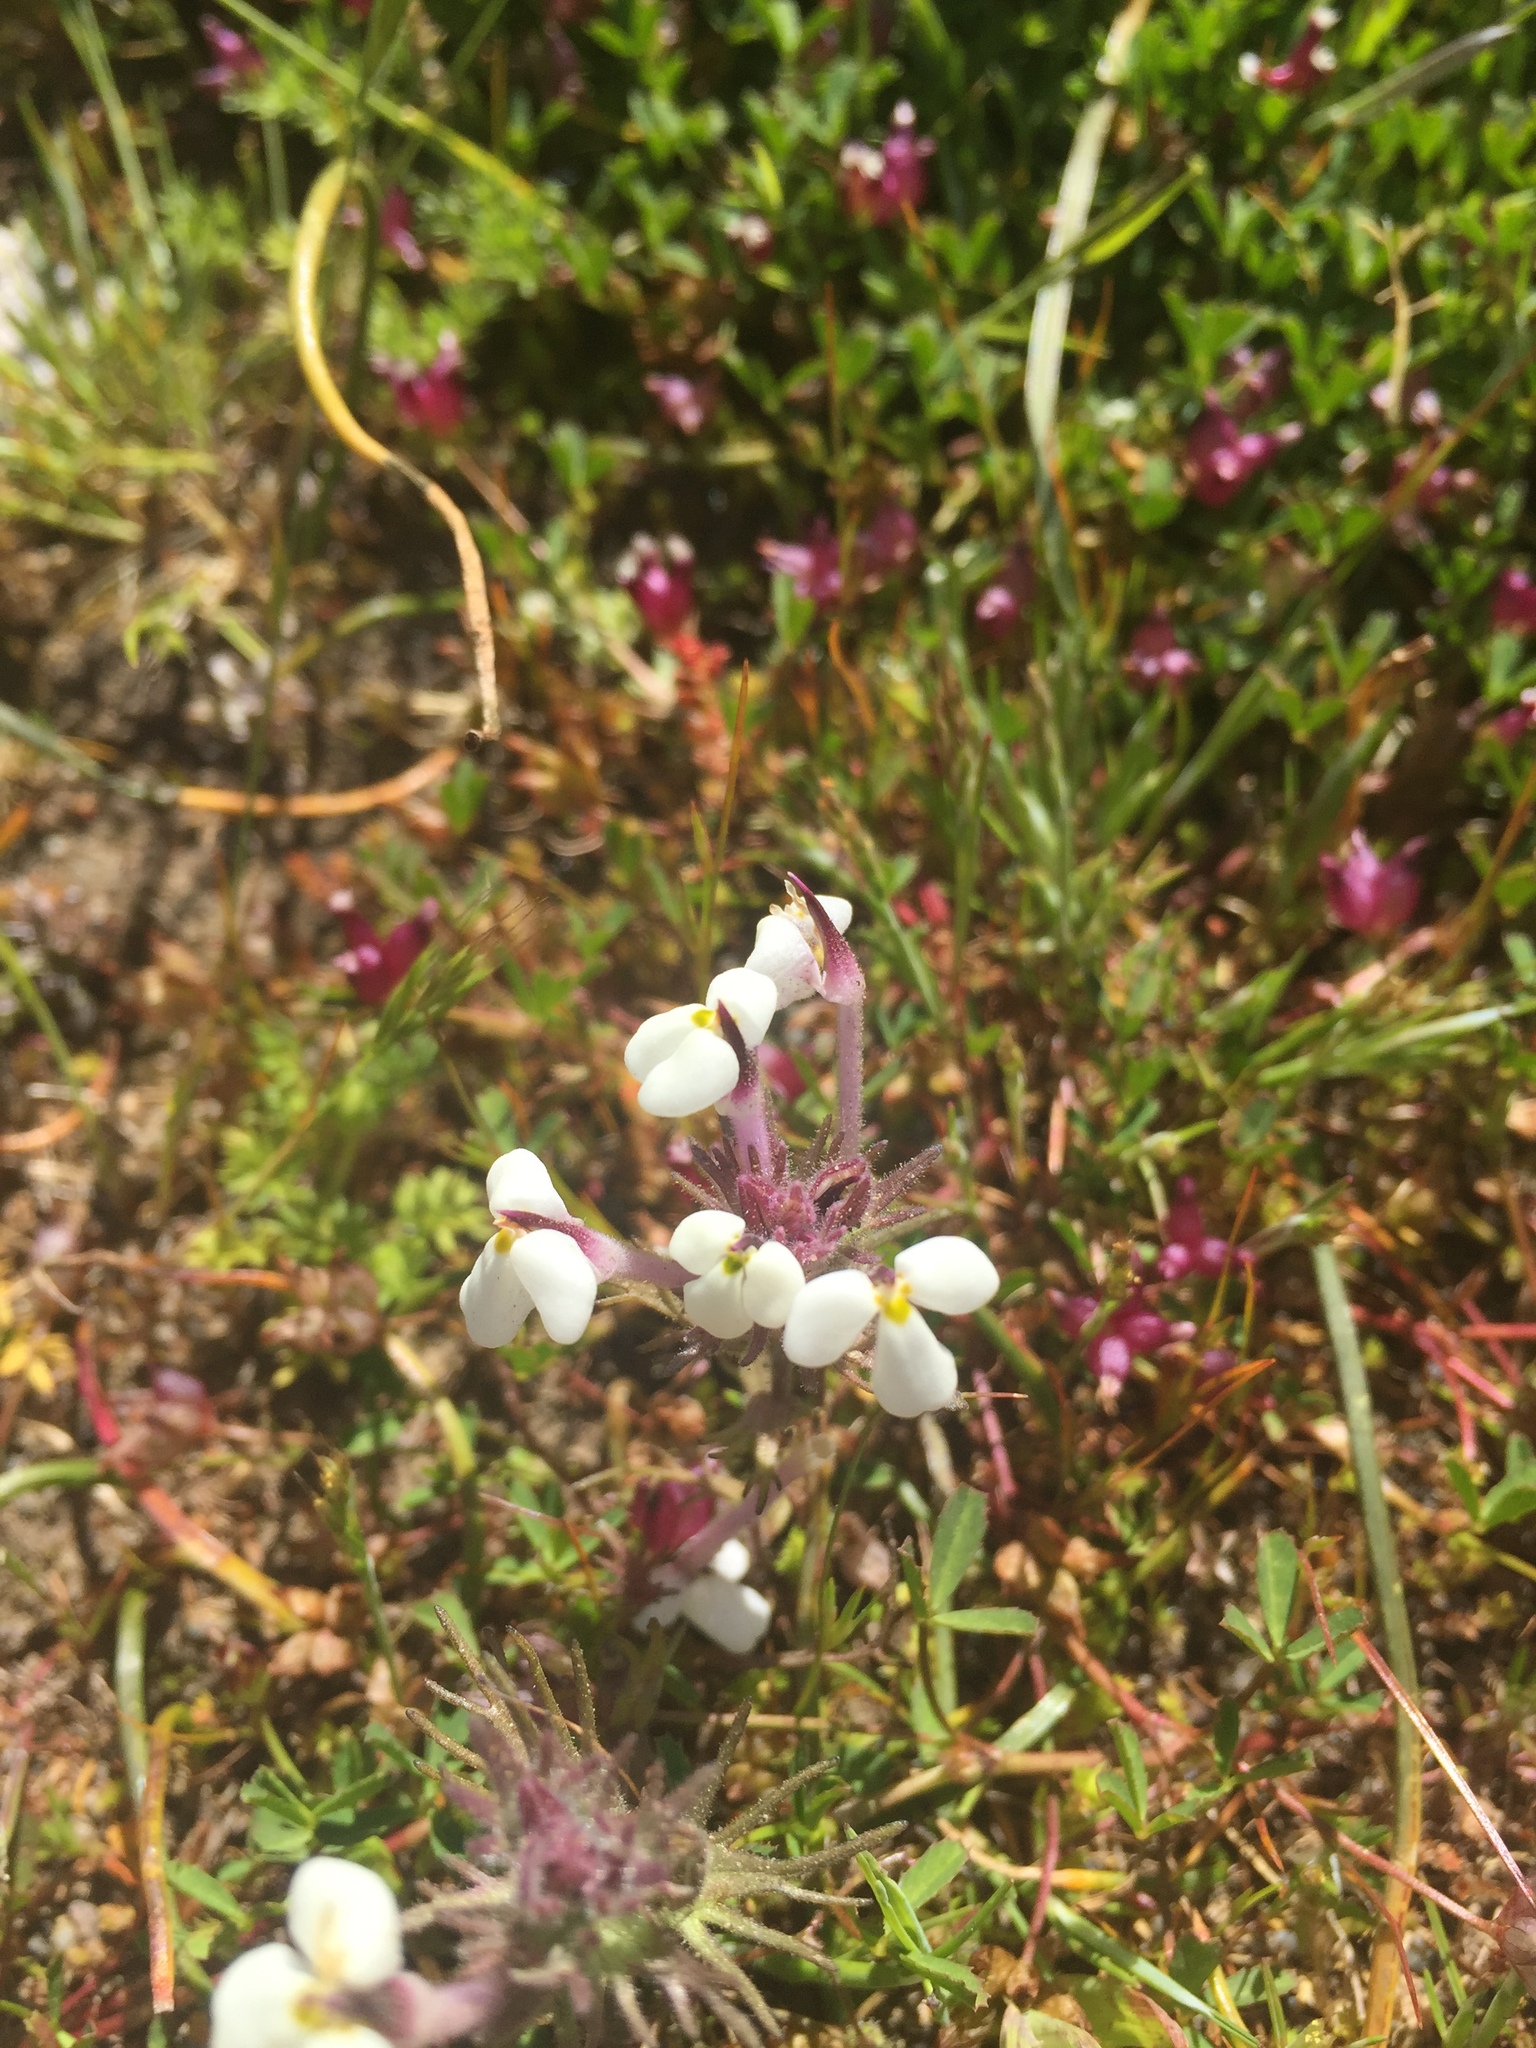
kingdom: Plantae
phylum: Tracheophyta
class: Magnoliopsida
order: Lamiales
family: Orobanchaceae
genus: Triphysaria
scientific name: Triphysaria eriantha
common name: Johnny-tuck
